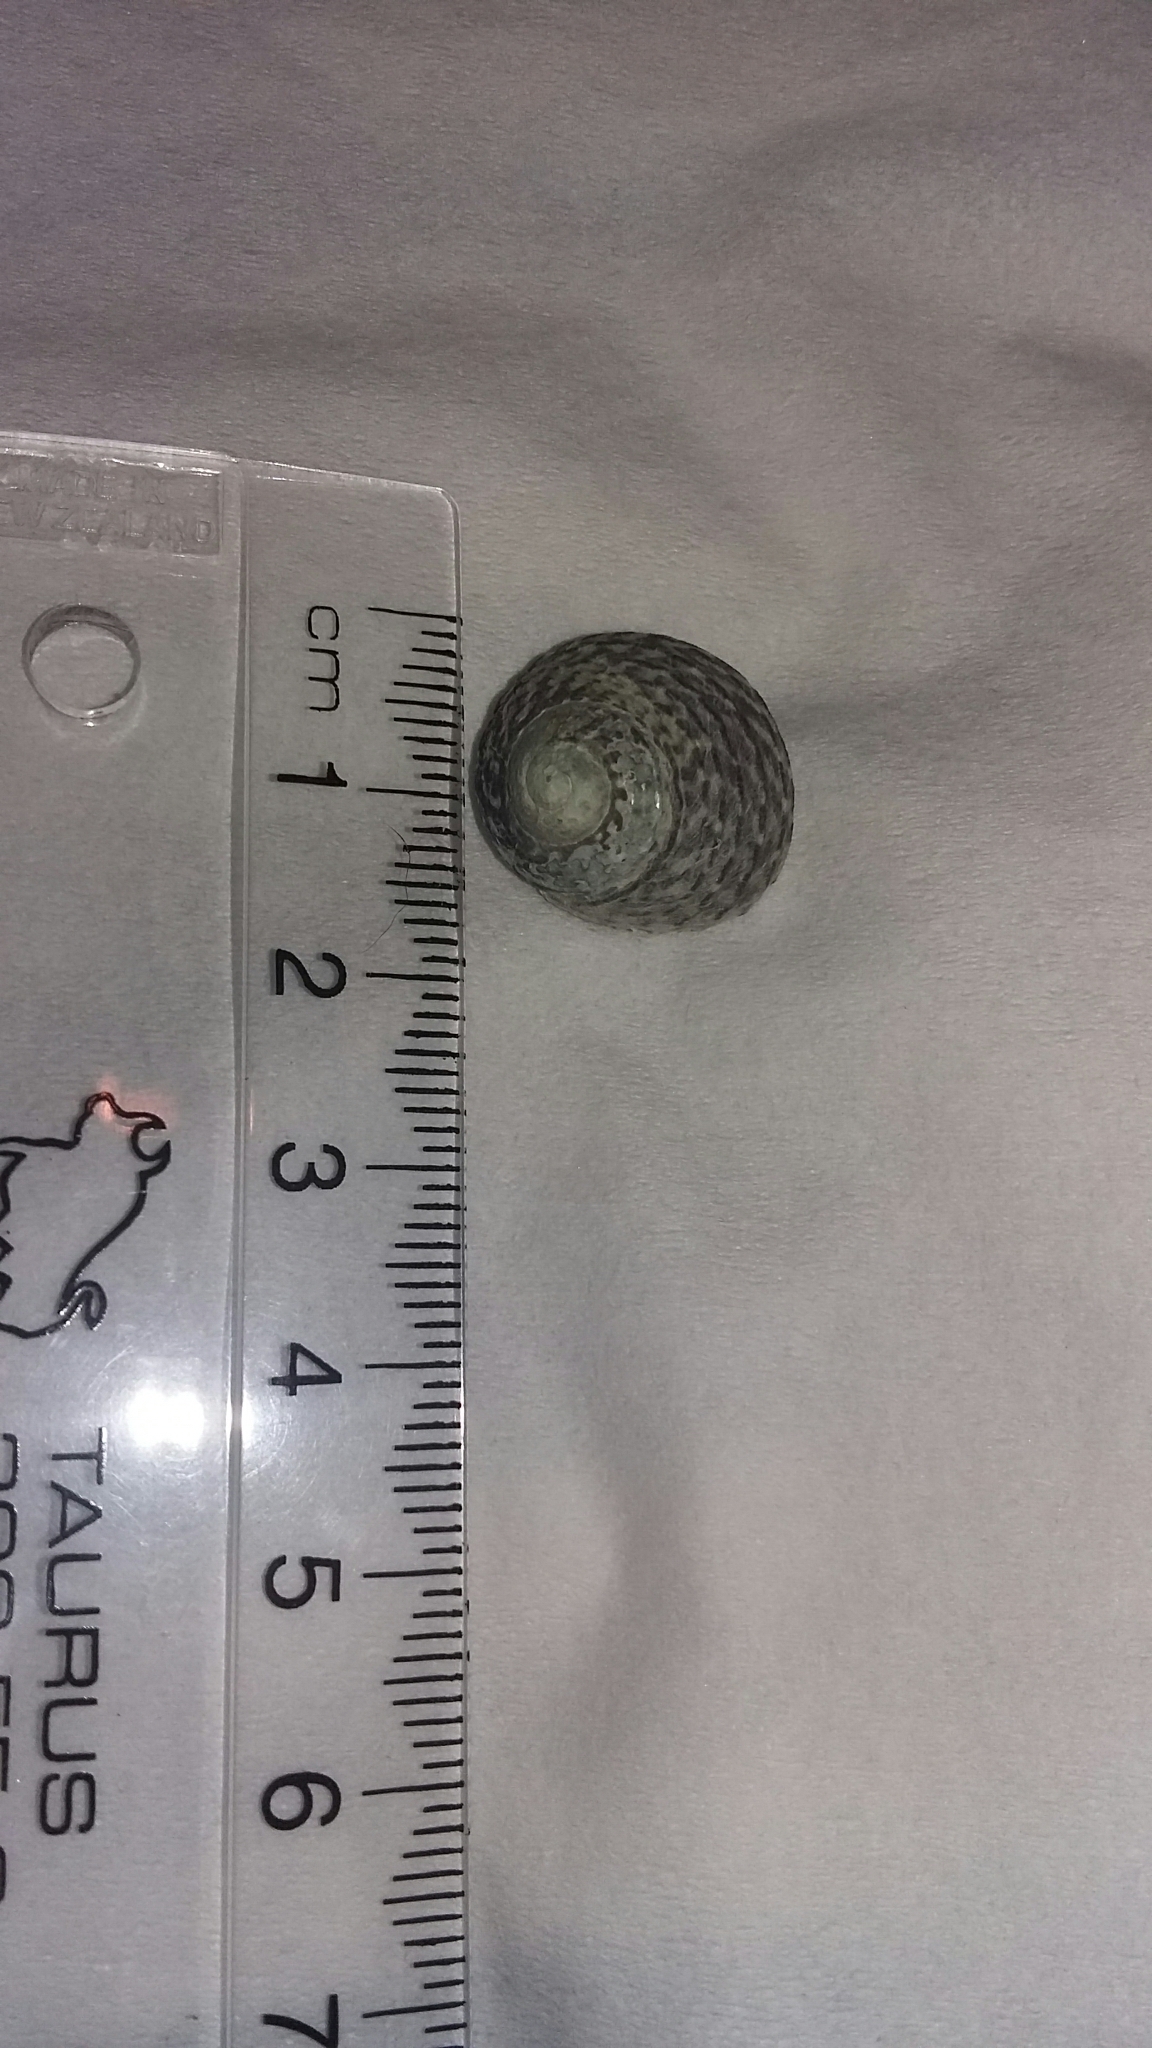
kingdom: Animalia
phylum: Mollusca
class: Gastropoda
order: Trochida
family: Trochidae
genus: Diloma
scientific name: Diloma subrostratum
